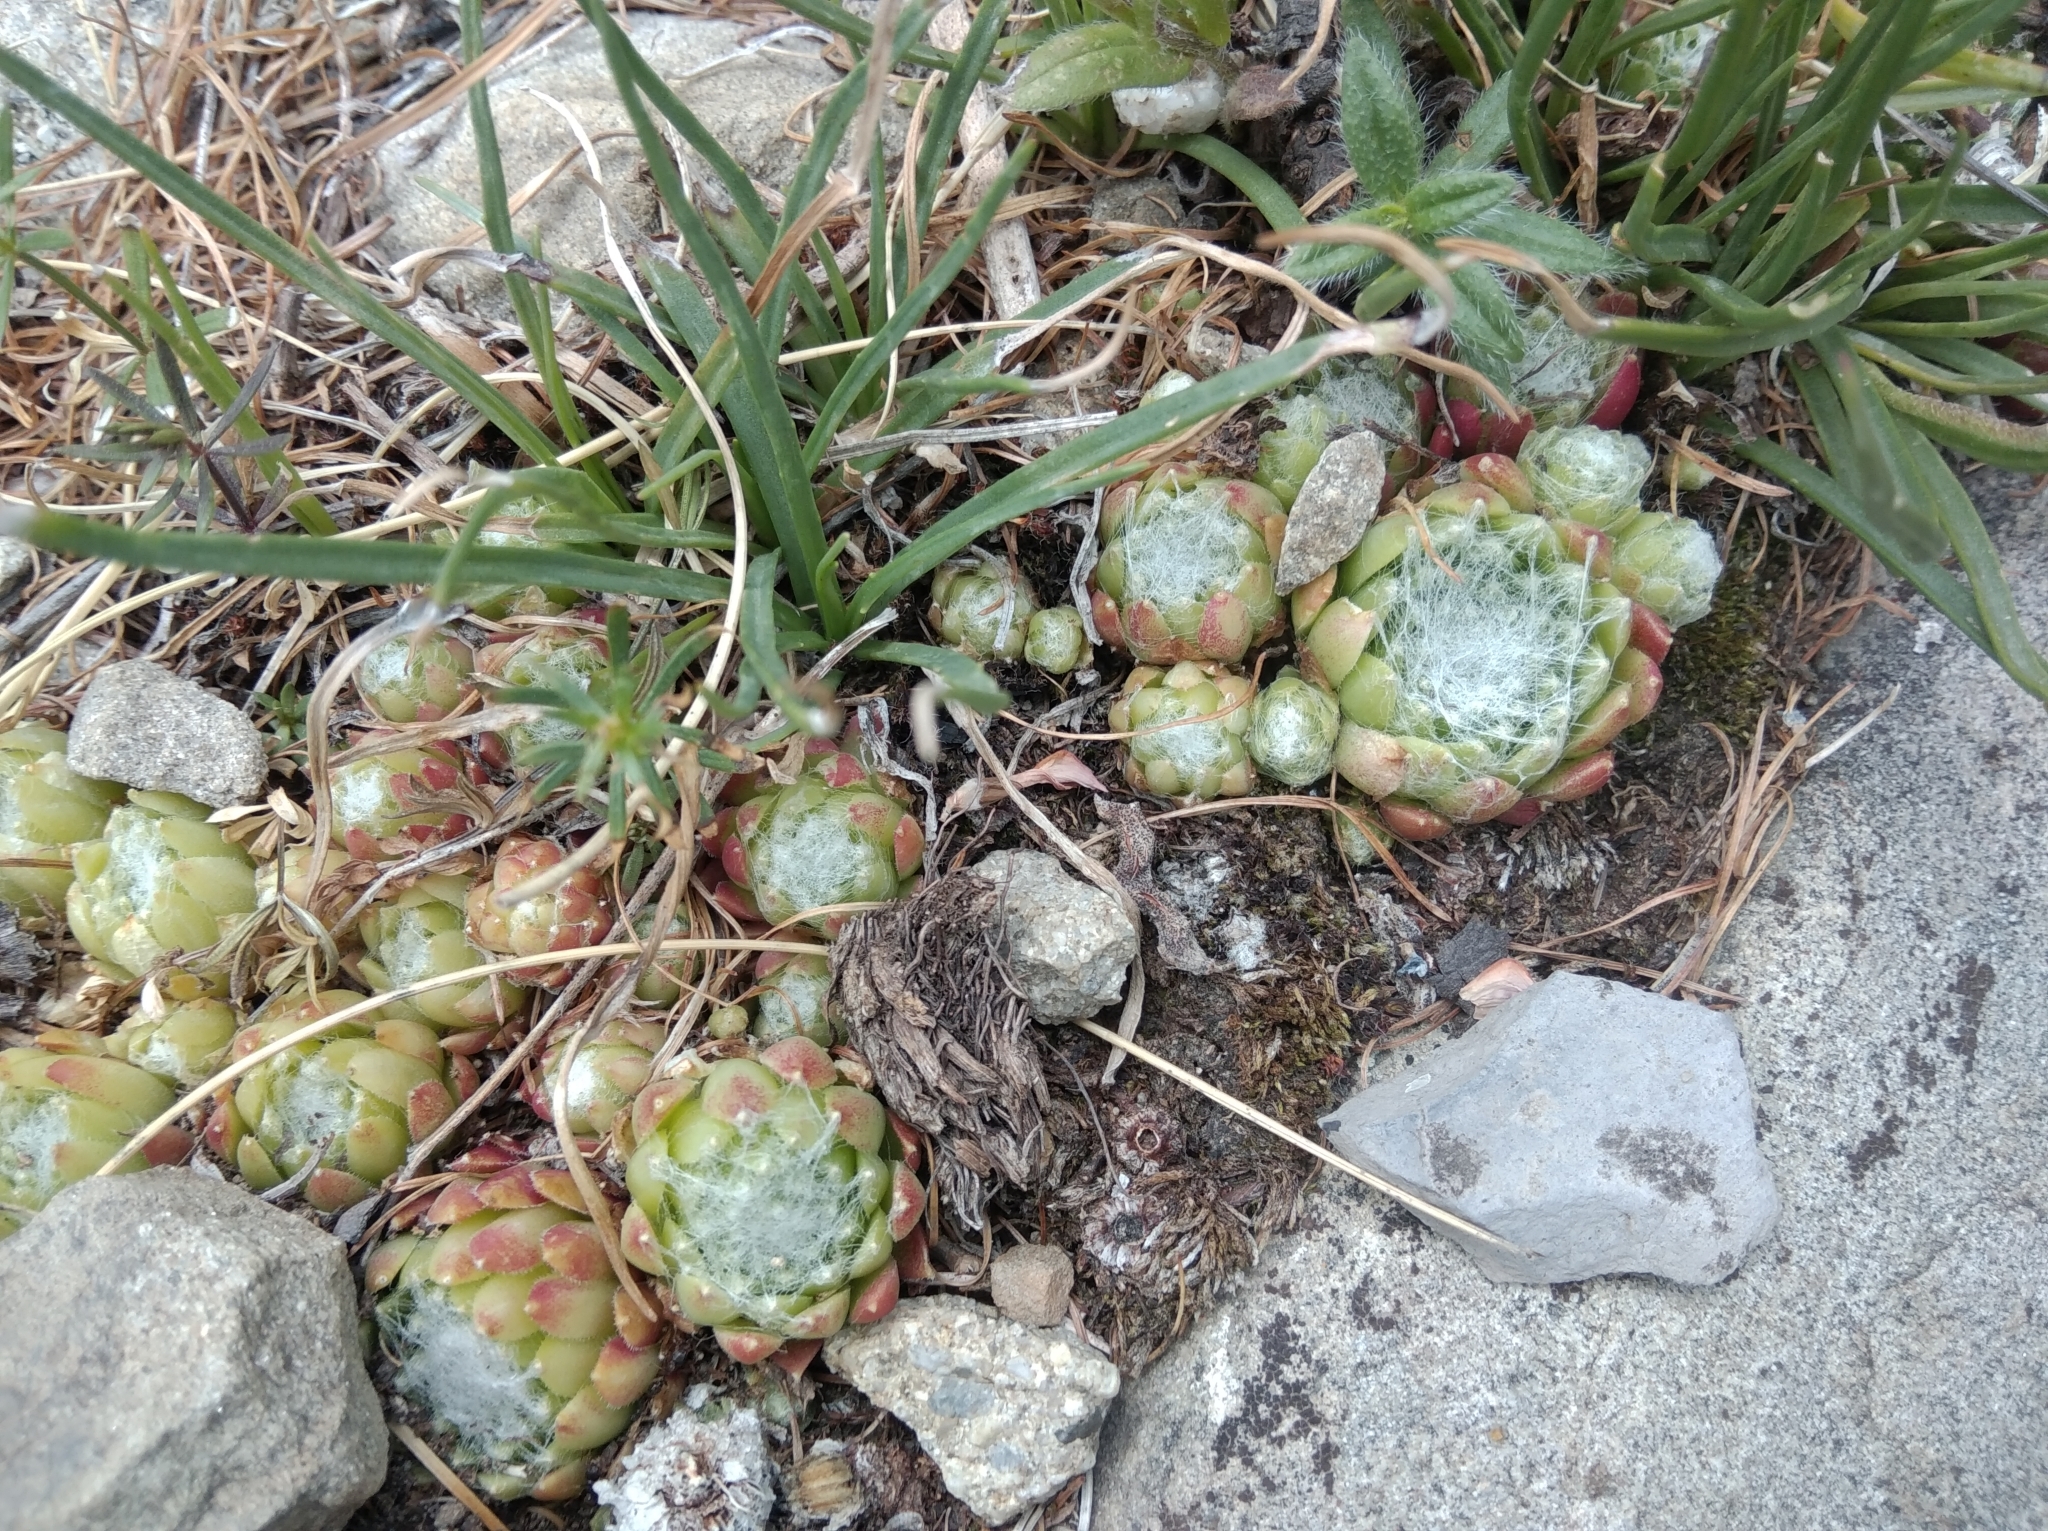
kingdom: Plantae
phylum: Tracheophyta
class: Magnoliopsida
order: Saxifragales
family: Crassulaceae
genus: Sempervivum
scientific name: Sempervivum arachnoideum
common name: Cobweb house-leek
